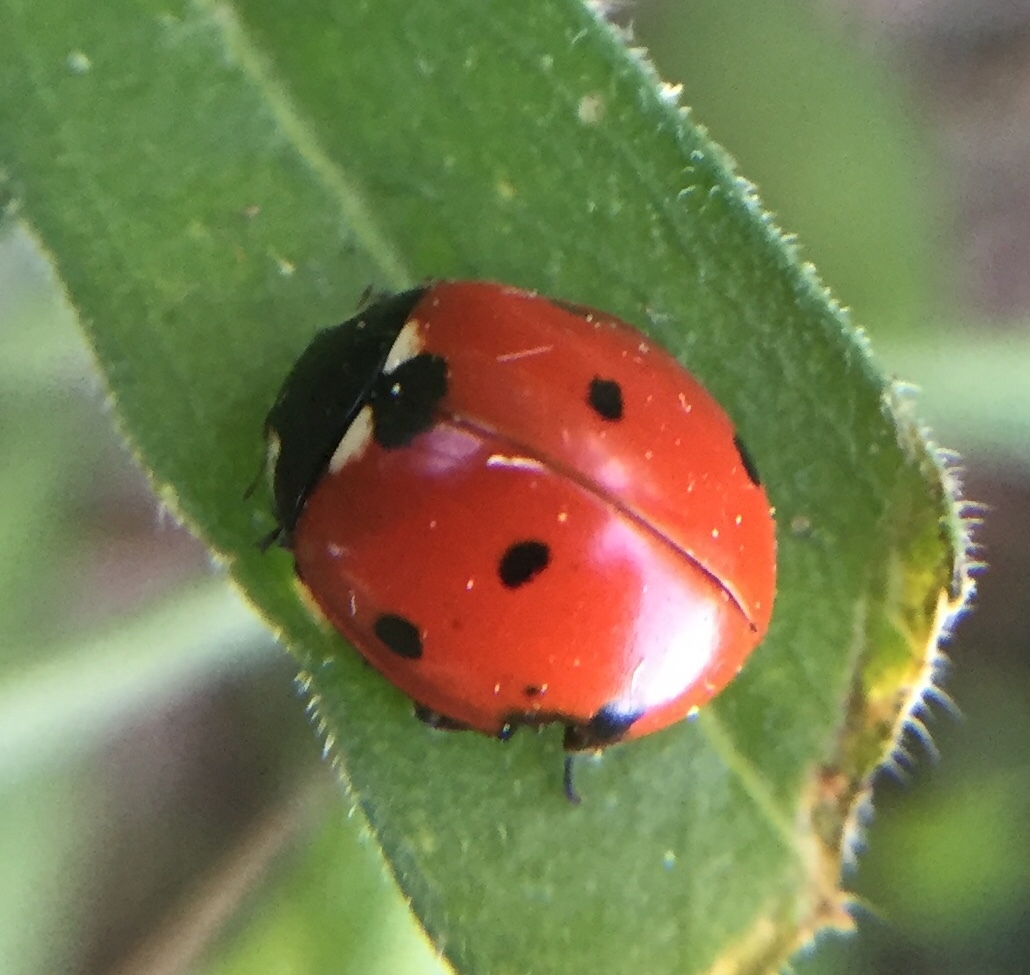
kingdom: Animalia
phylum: Arthropoda
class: Insecta
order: Coleoptera
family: Coccinellidae
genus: Coccinella
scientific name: Coccinella septempunctata
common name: Sevenspotted lady beetle
